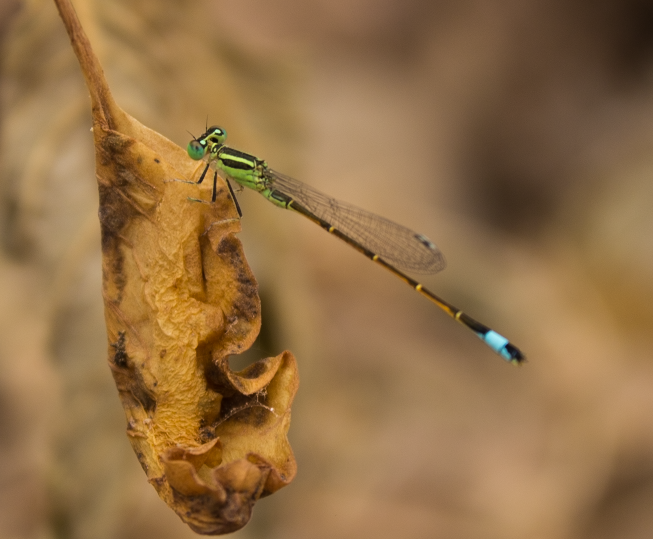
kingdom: Animalia
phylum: Arthropoda
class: Insecta
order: Odonata
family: Coenagrionidae
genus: Ischnura
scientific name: Ischnura saharensis
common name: Sahara bluetail
